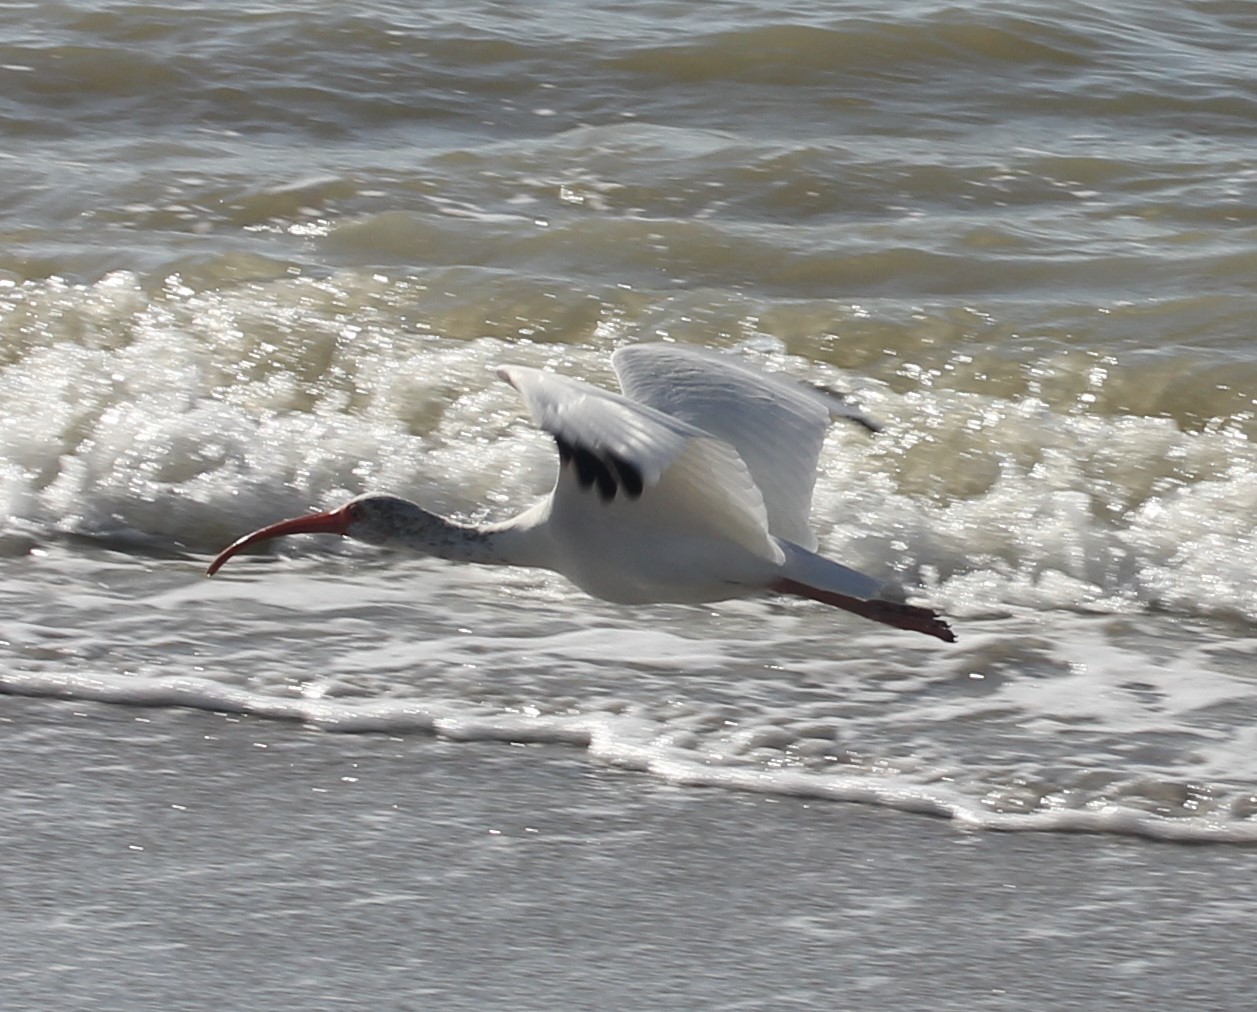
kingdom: Animalia
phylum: Chordata
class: Aves
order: Pelecaniformes
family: Threskiornithidae
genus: Eudocimus
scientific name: Eudocimus albus
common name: White ibis
